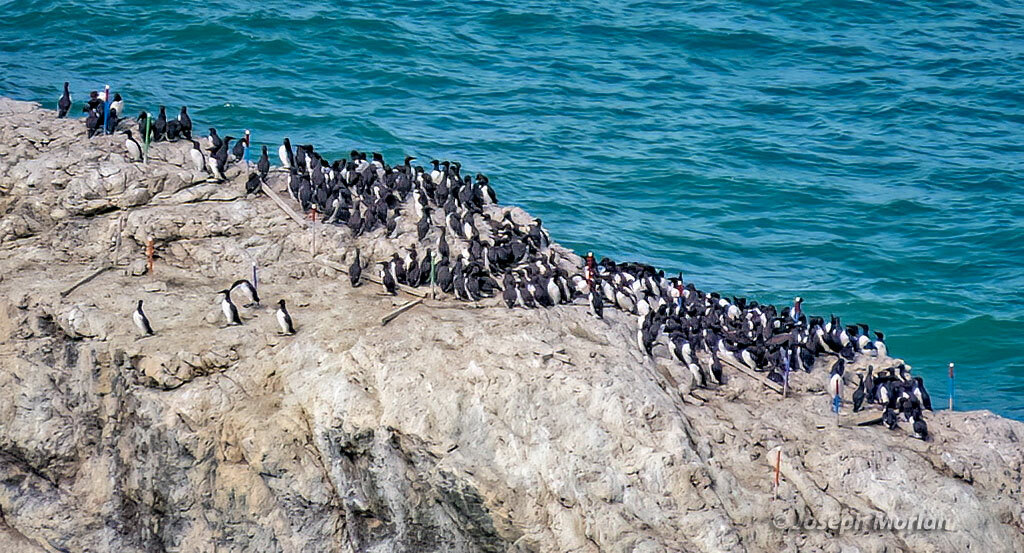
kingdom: Animalia
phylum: Chordata
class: Aves
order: Charadriiformes
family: Alcidae
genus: Uria
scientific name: Uria aalge
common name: Common murre
